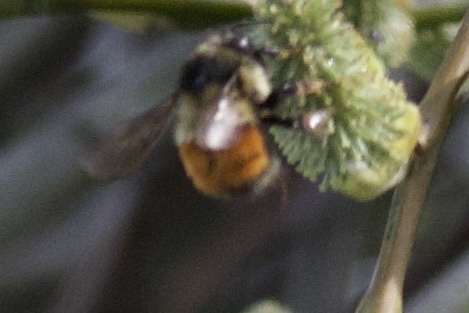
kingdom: Animalia
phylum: Arthropoda
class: Insecta
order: Hymenoptera
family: Apidae
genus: Bombus
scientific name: Bombus melanopygus
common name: Black tail bumble bee
